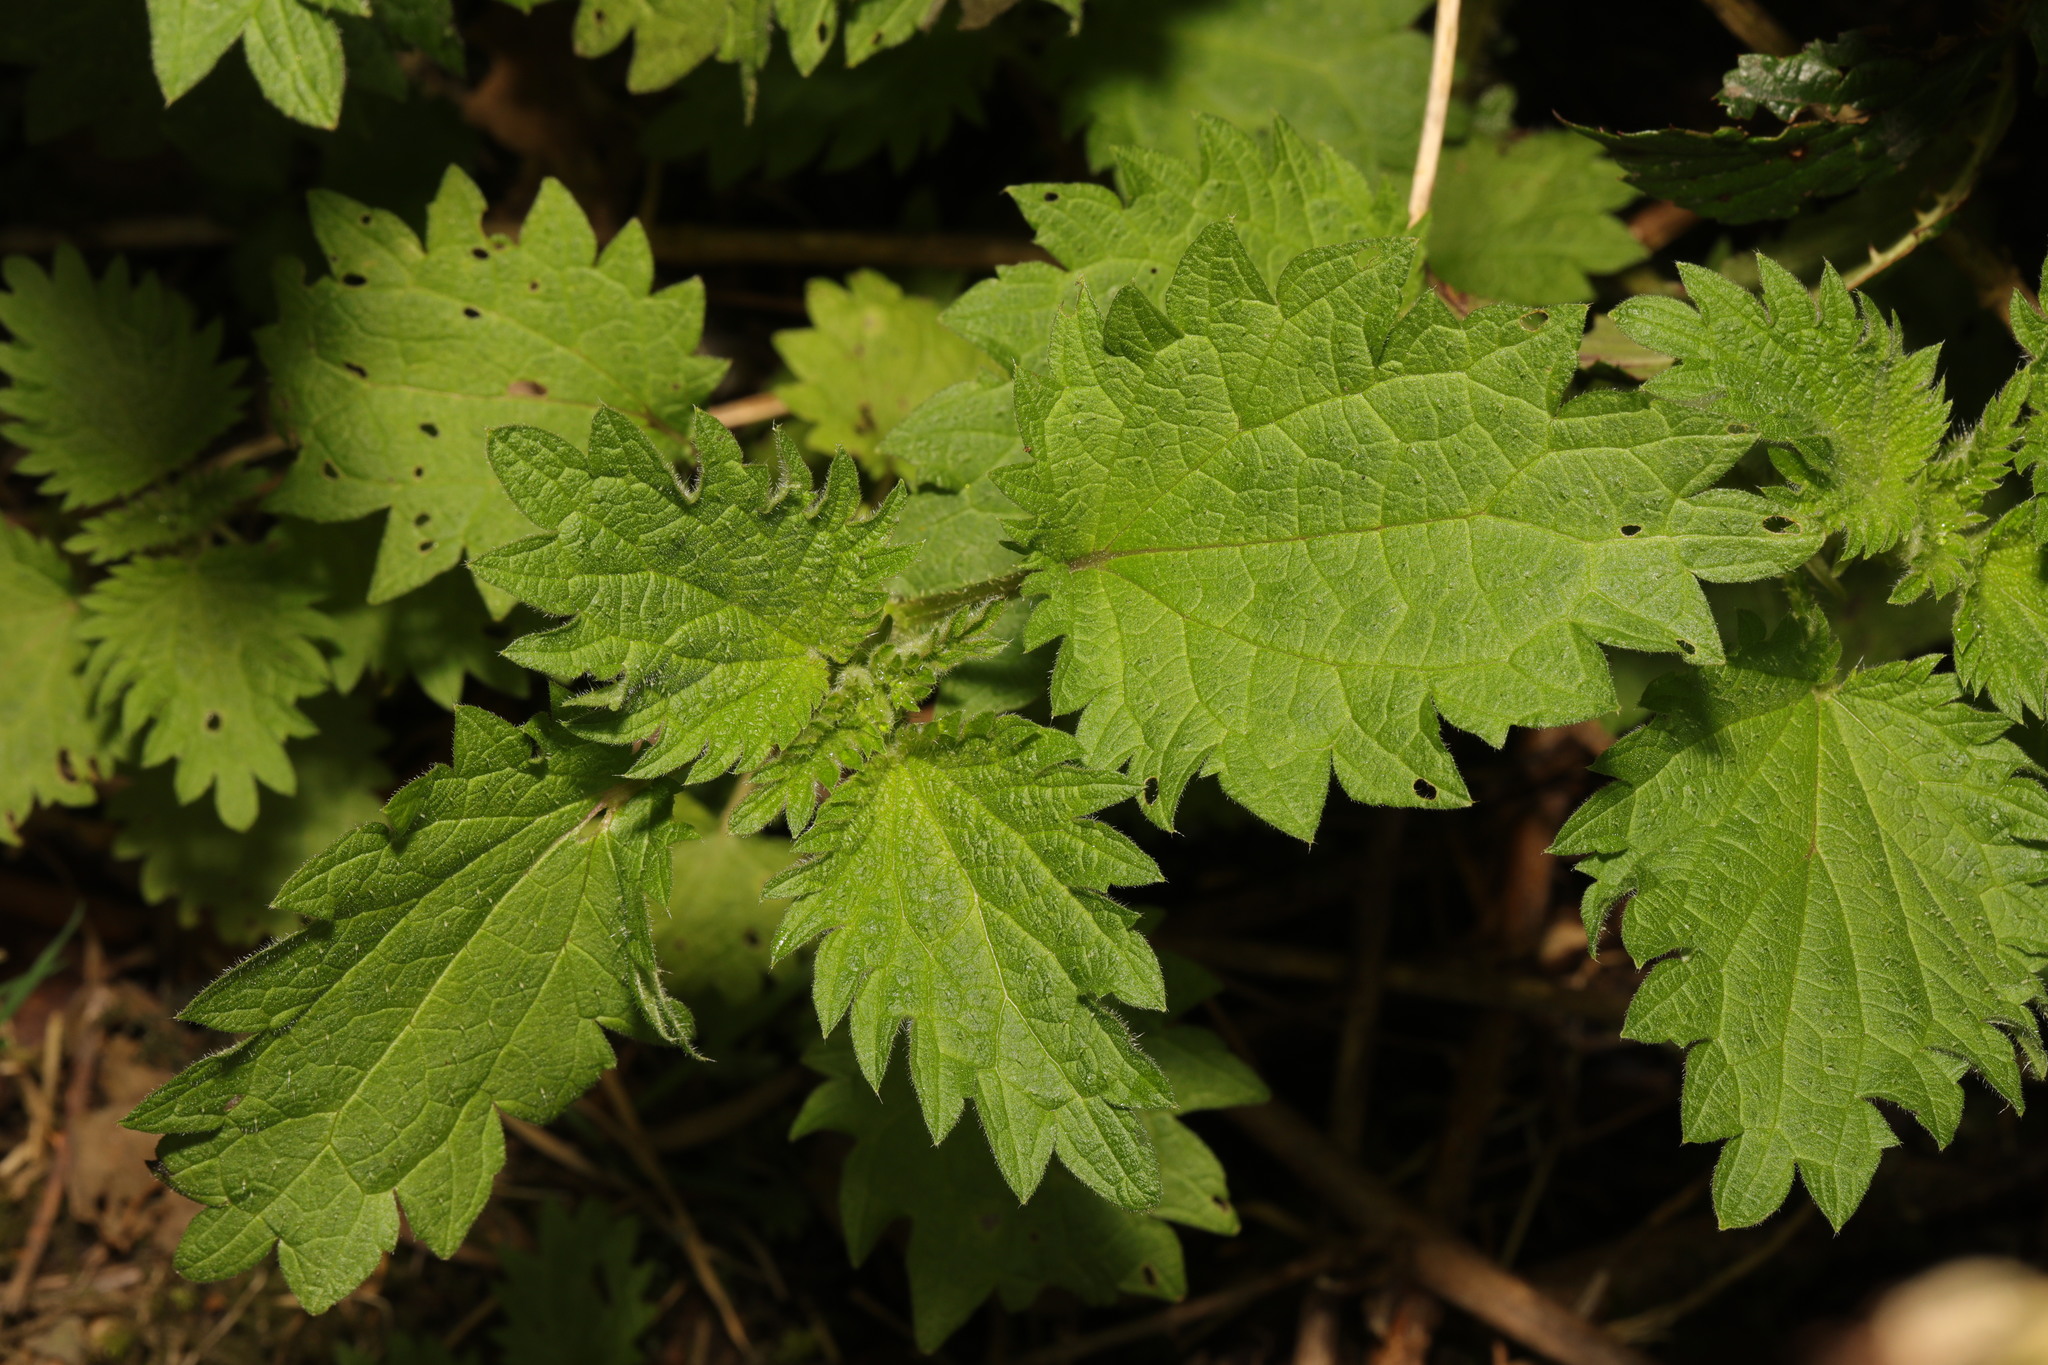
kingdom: Plantae
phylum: Tracheophyta
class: Magnoliopsida
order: Rosales
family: Urticaceae
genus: Urtica
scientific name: Urtica dioica
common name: Common nettle
